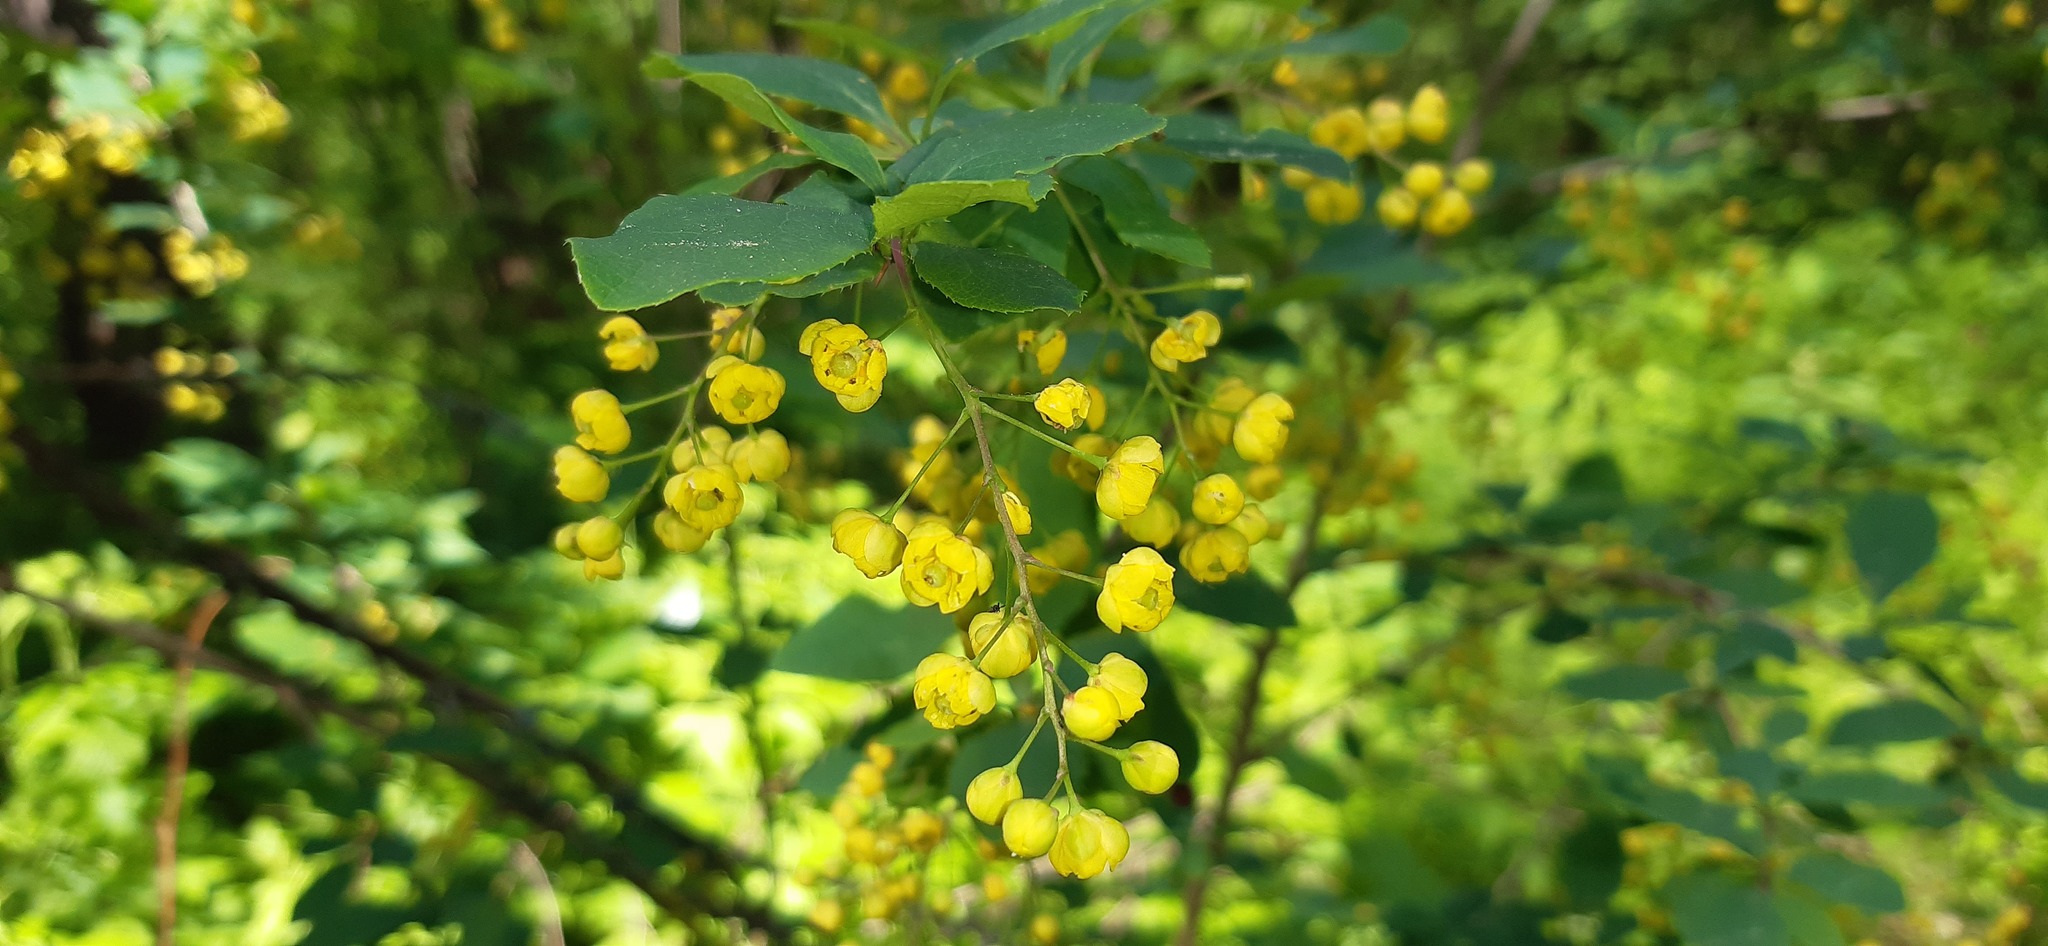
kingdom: Plantae
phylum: Tracheophyta
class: Magnoliopsida
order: Ranunculales
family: Berberidaceae
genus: Berberis
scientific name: Berberis vulgaris
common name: Barberry
